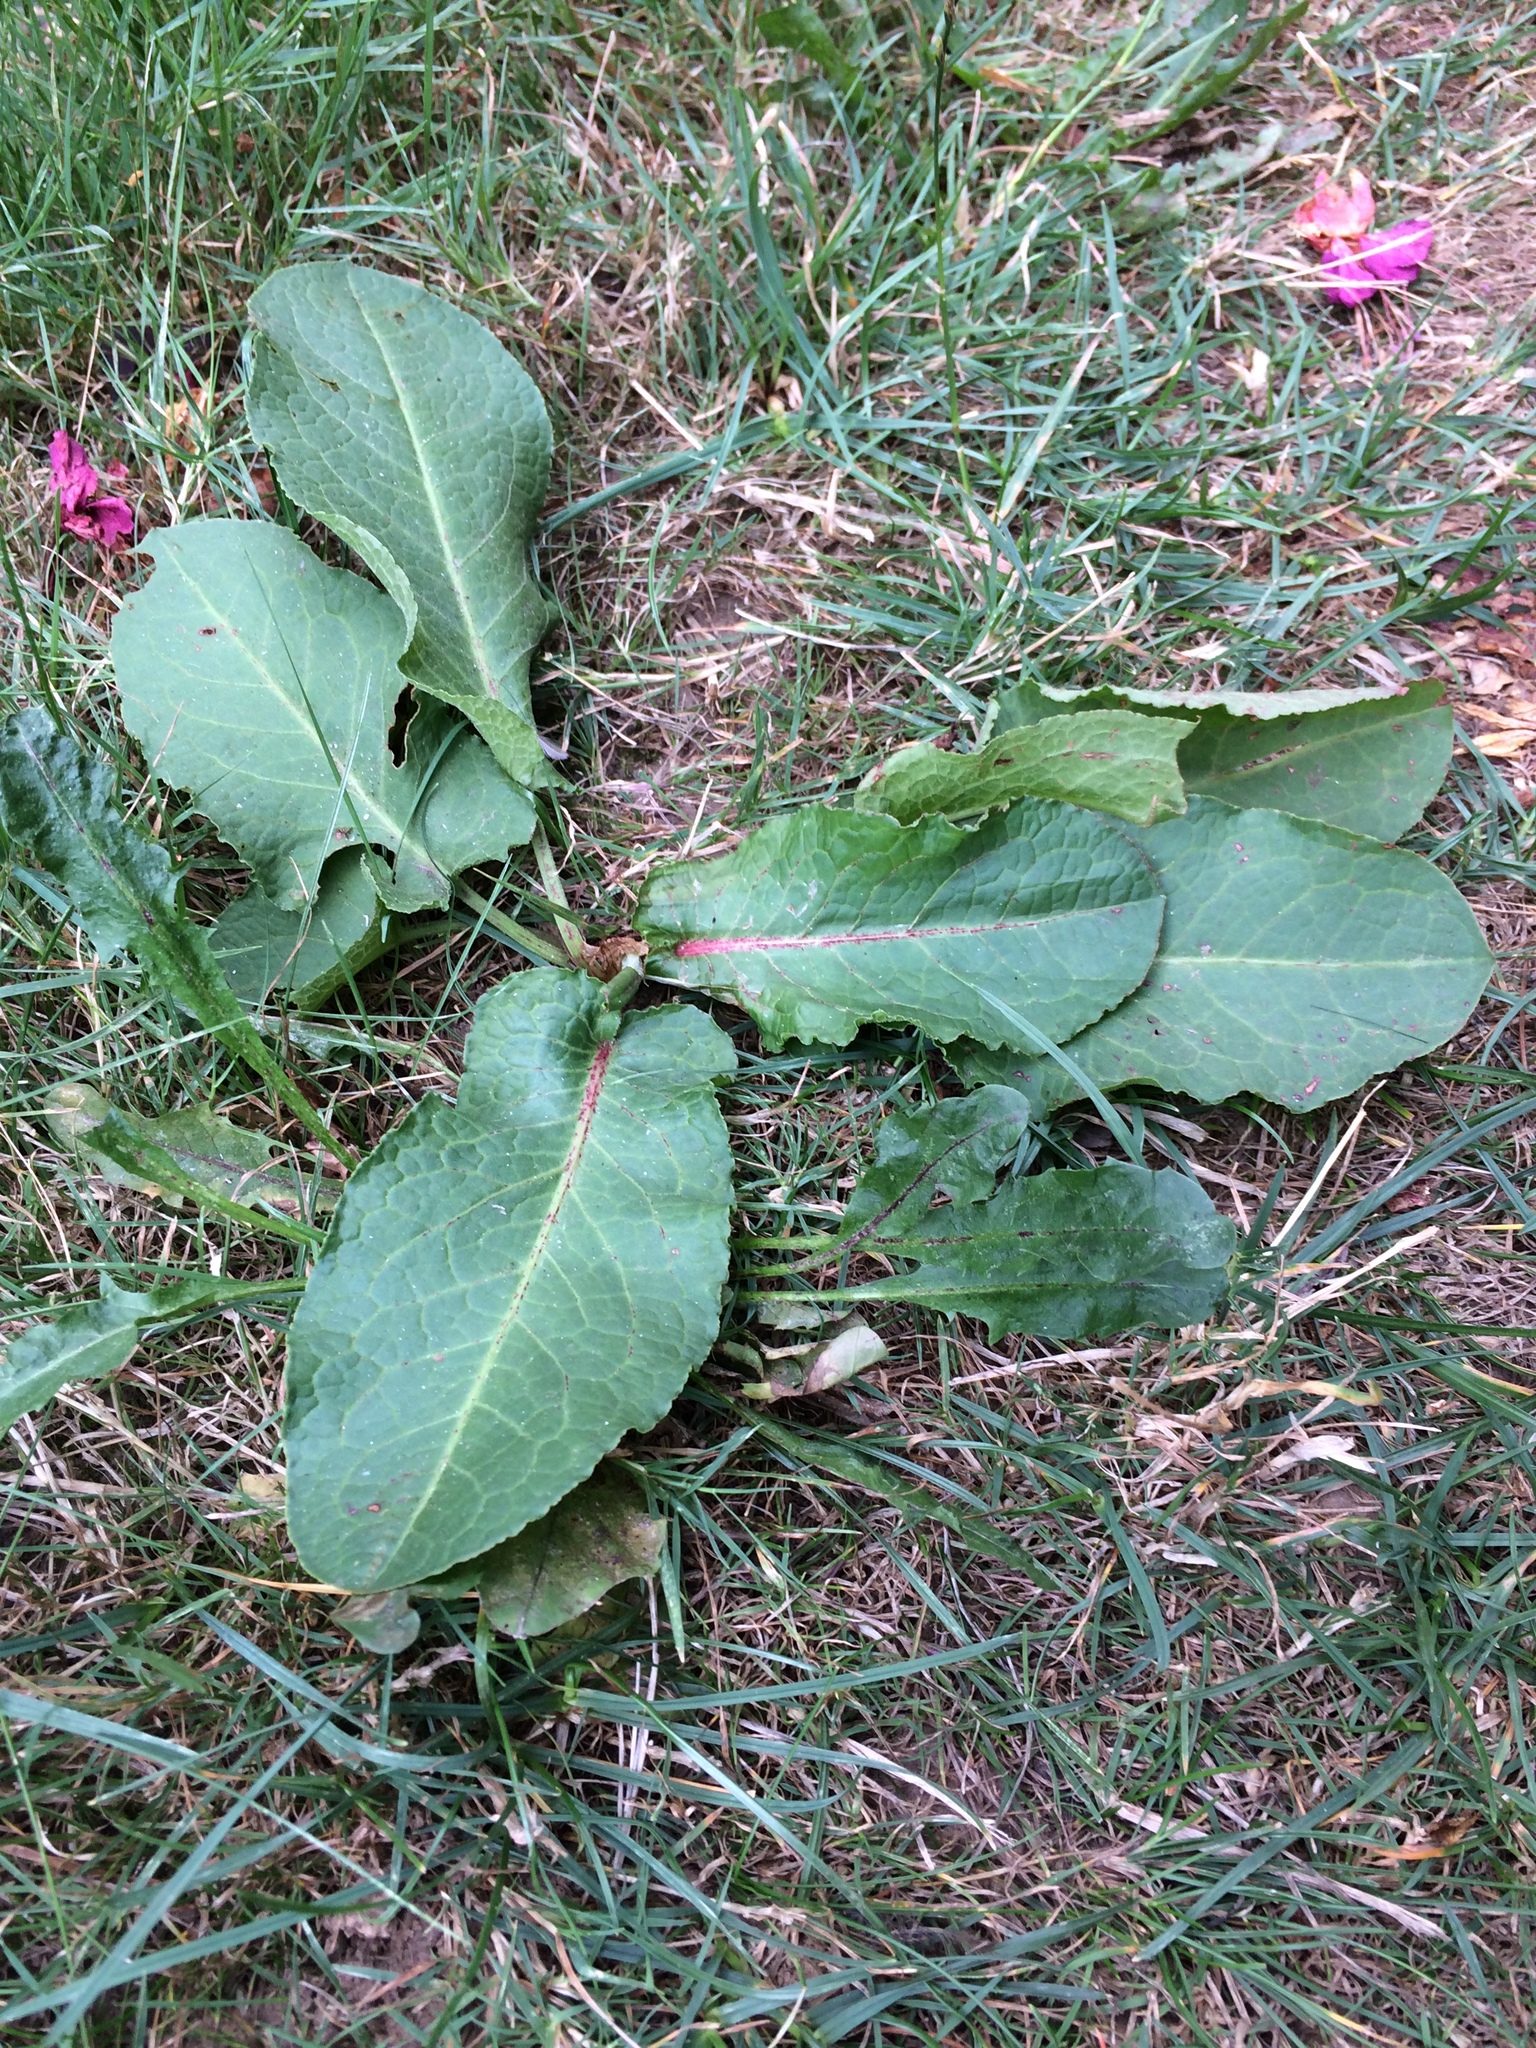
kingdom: Plantae
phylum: Tracheophyta
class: Magnoliopsida
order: Caryophyllales
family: Polygonaceae
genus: Rumex
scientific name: Rumex obtusifolius
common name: Bitter dock
